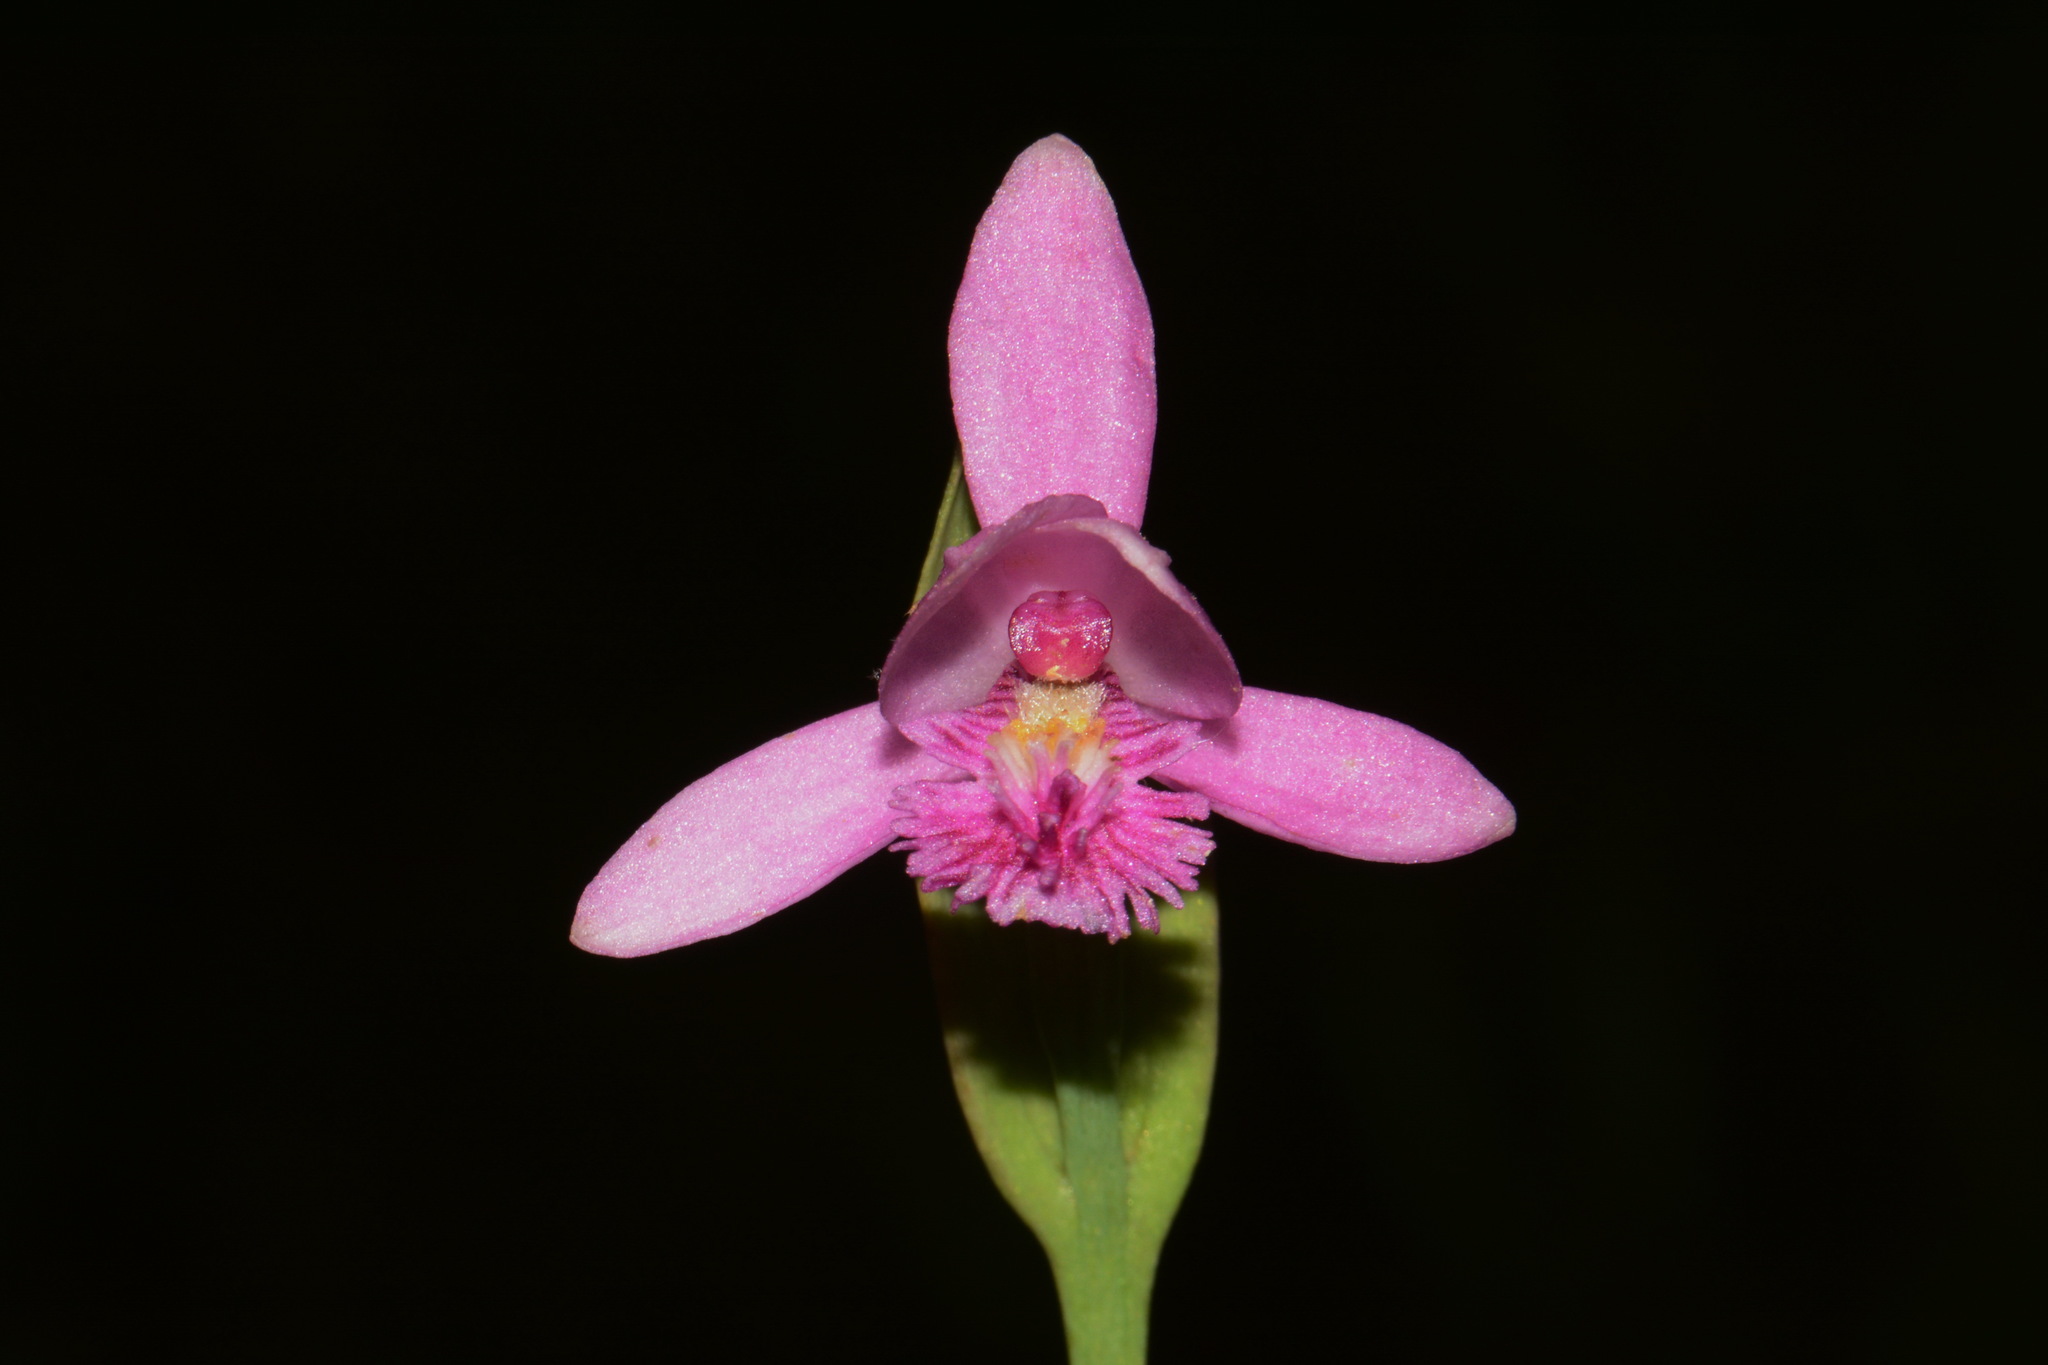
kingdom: Plantae
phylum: Tracheophyta
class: Liliopsida
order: Asparagales
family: Orchidaceae
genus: Pogonia
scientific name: Pogonia ophioglossoides
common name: Rose pogonia
